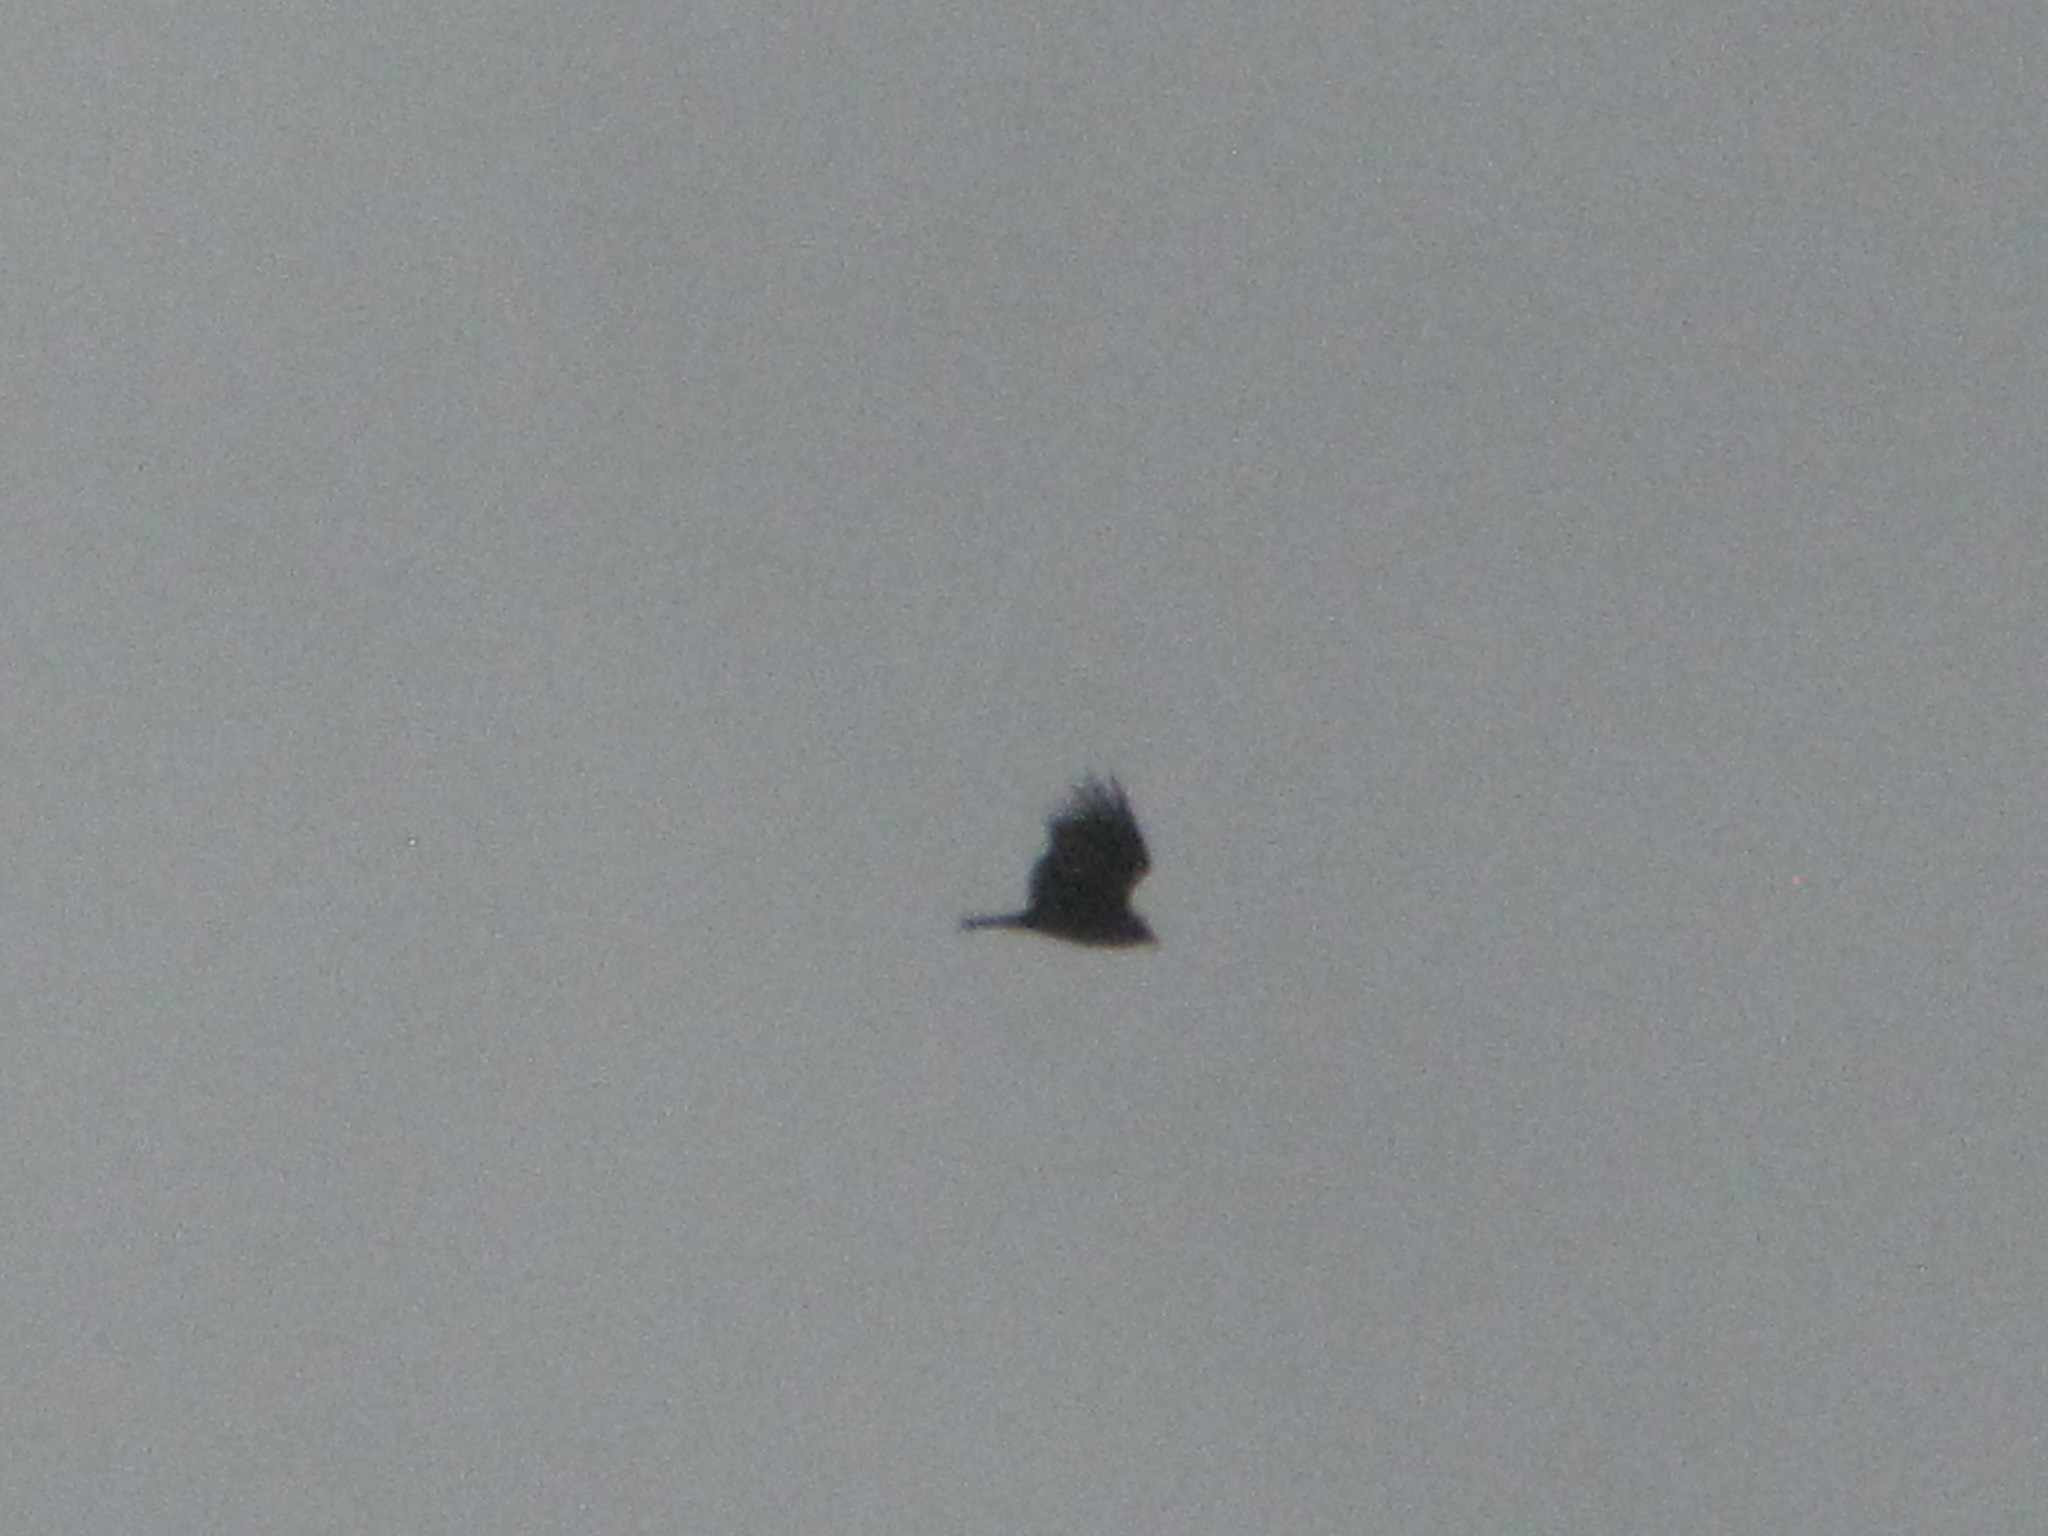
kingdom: Animalia
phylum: Chordata
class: Aves
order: Accipitriformes
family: Cathartidae
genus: Cathartes
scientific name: Cathartes aura
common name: Turkey vulture
